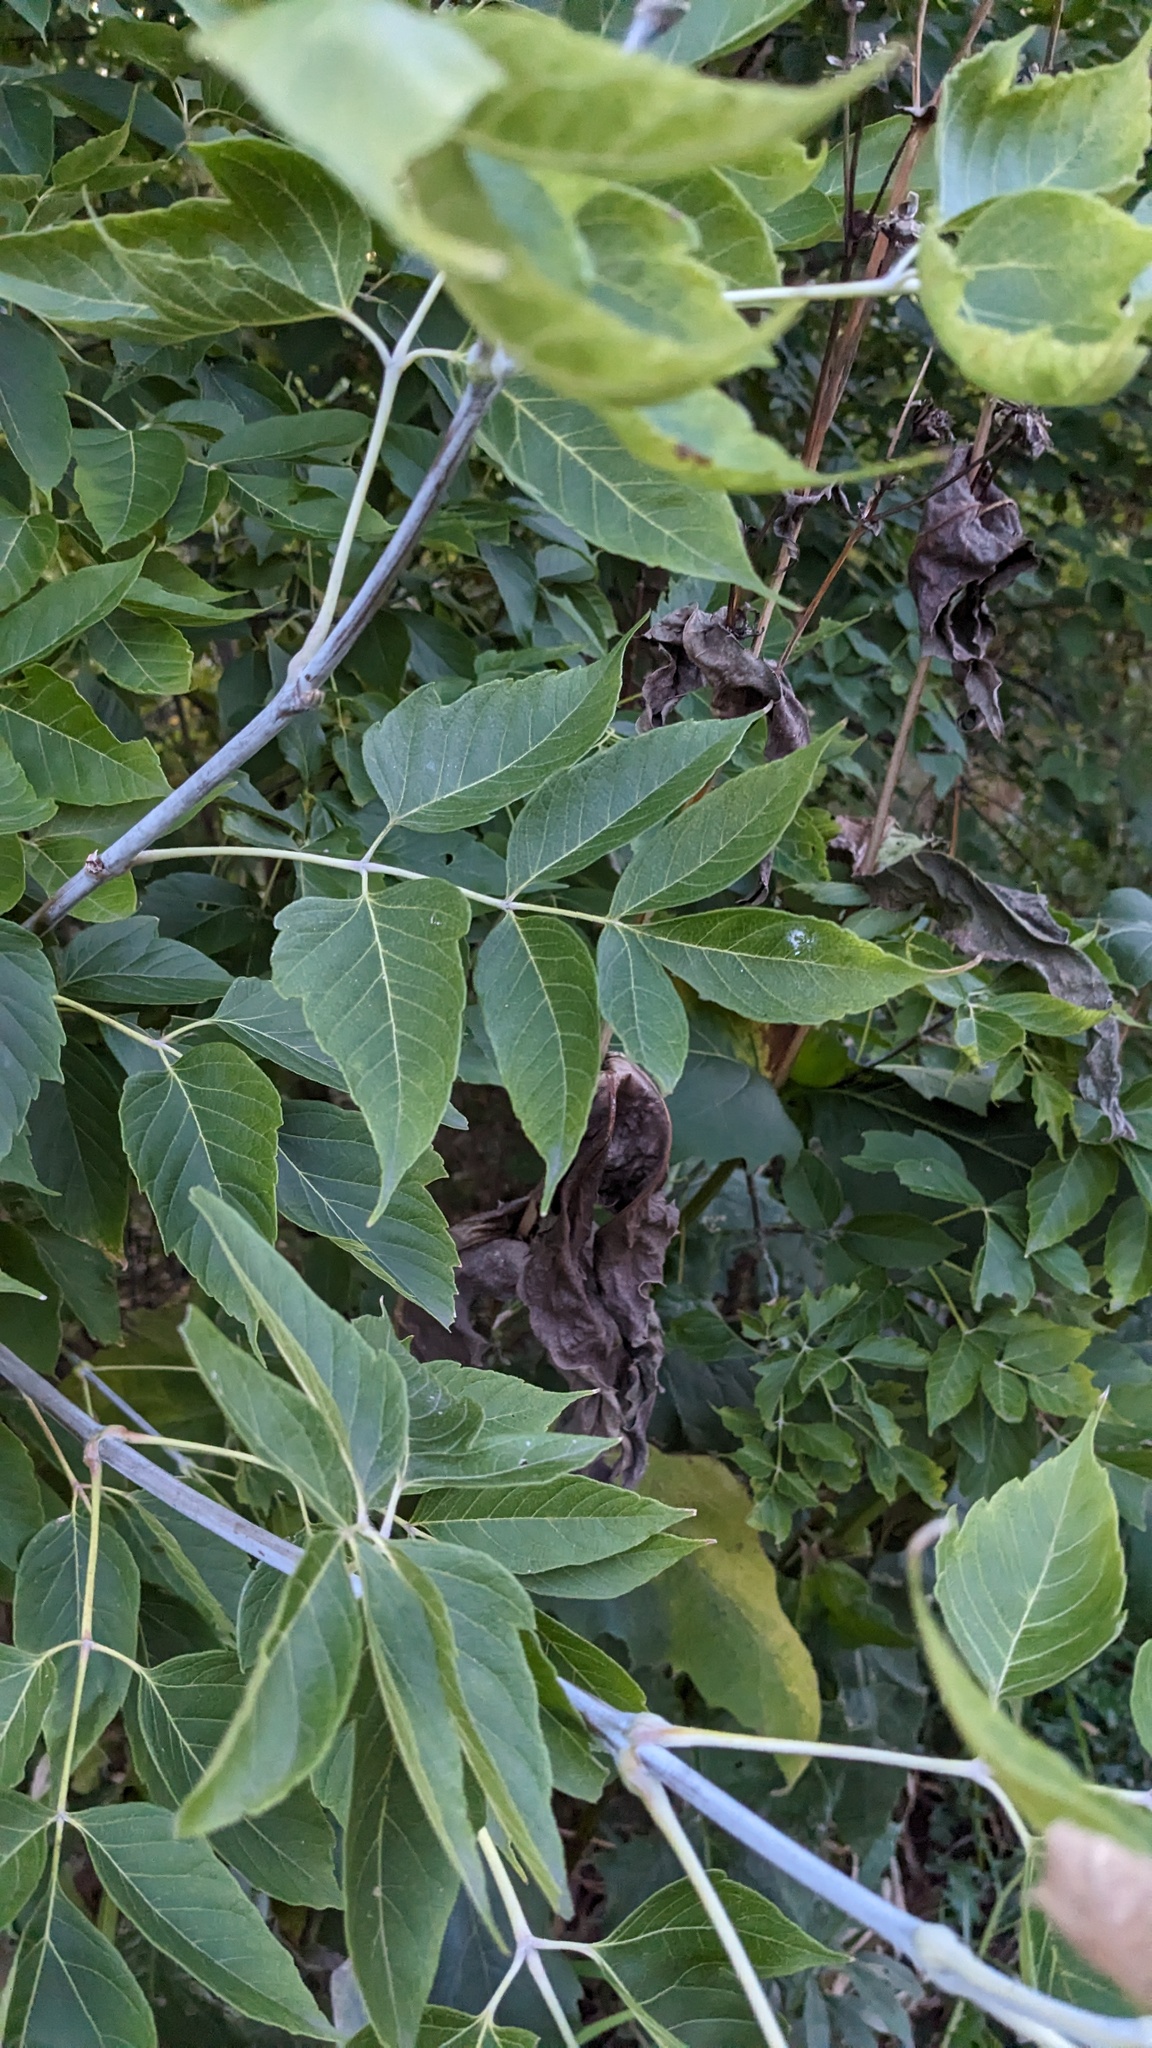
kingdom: Plantae
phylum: Tracheophyta
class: Magnoliopsida
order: Sapindales
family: Sapindaceae
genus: Acer
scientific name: Acer negundo
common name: Ashleaf maple
